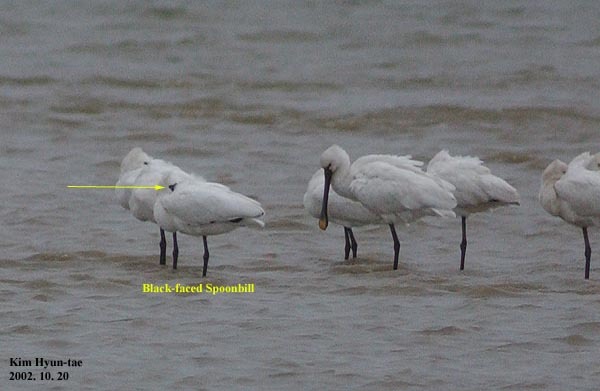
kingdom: Animalia
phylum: Chordata
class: Aves
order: Charadriiformes
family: Scolopacidae
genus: Calidris
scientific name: Calidris alpina
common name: Dunlin
